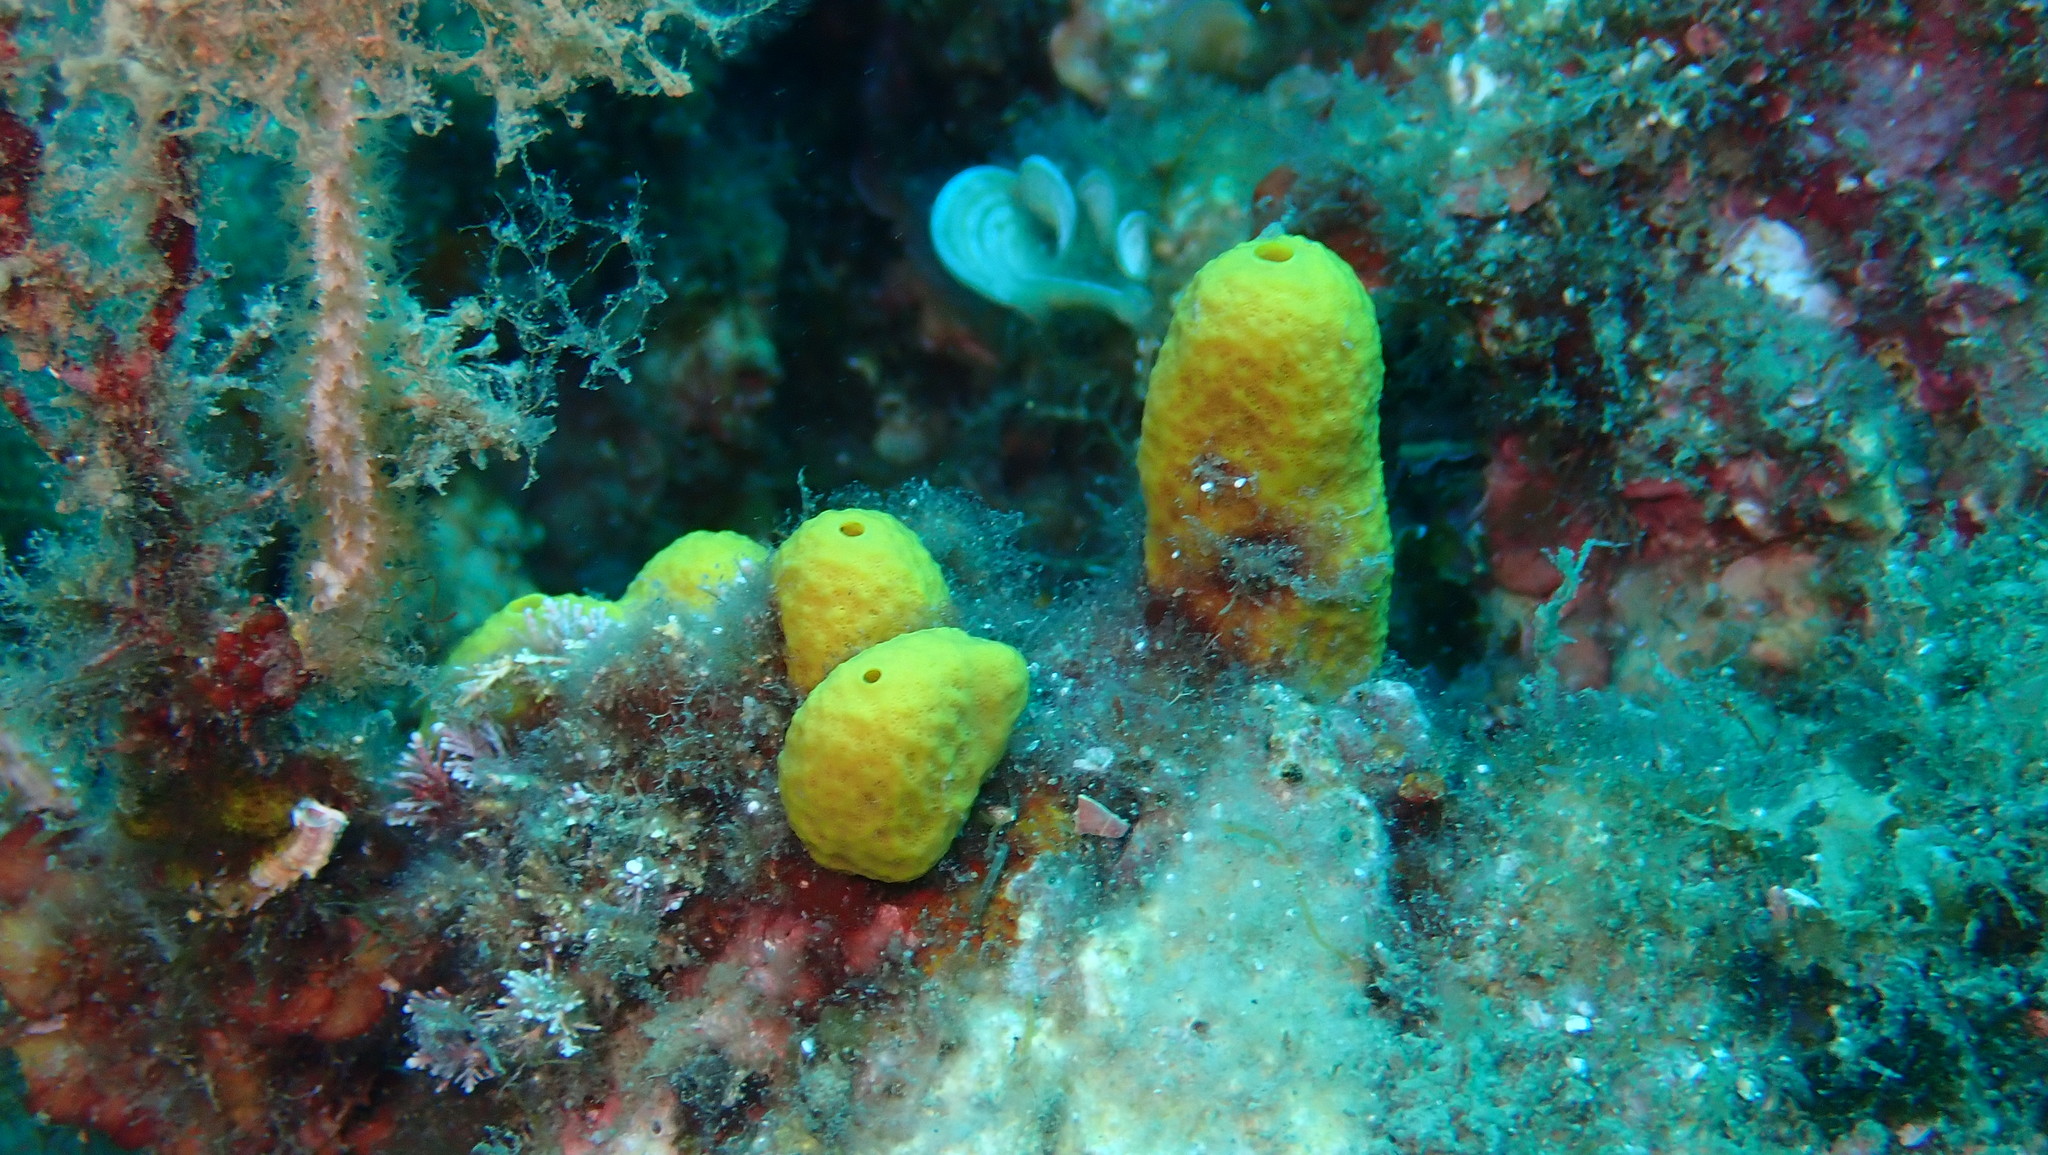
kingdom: Animalia
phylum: Porifera
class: Demospongiae
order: Verongiida
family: Aplysinidae
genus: Aplysina
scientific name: Aplysina aerophoba
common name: Aureate sponge
